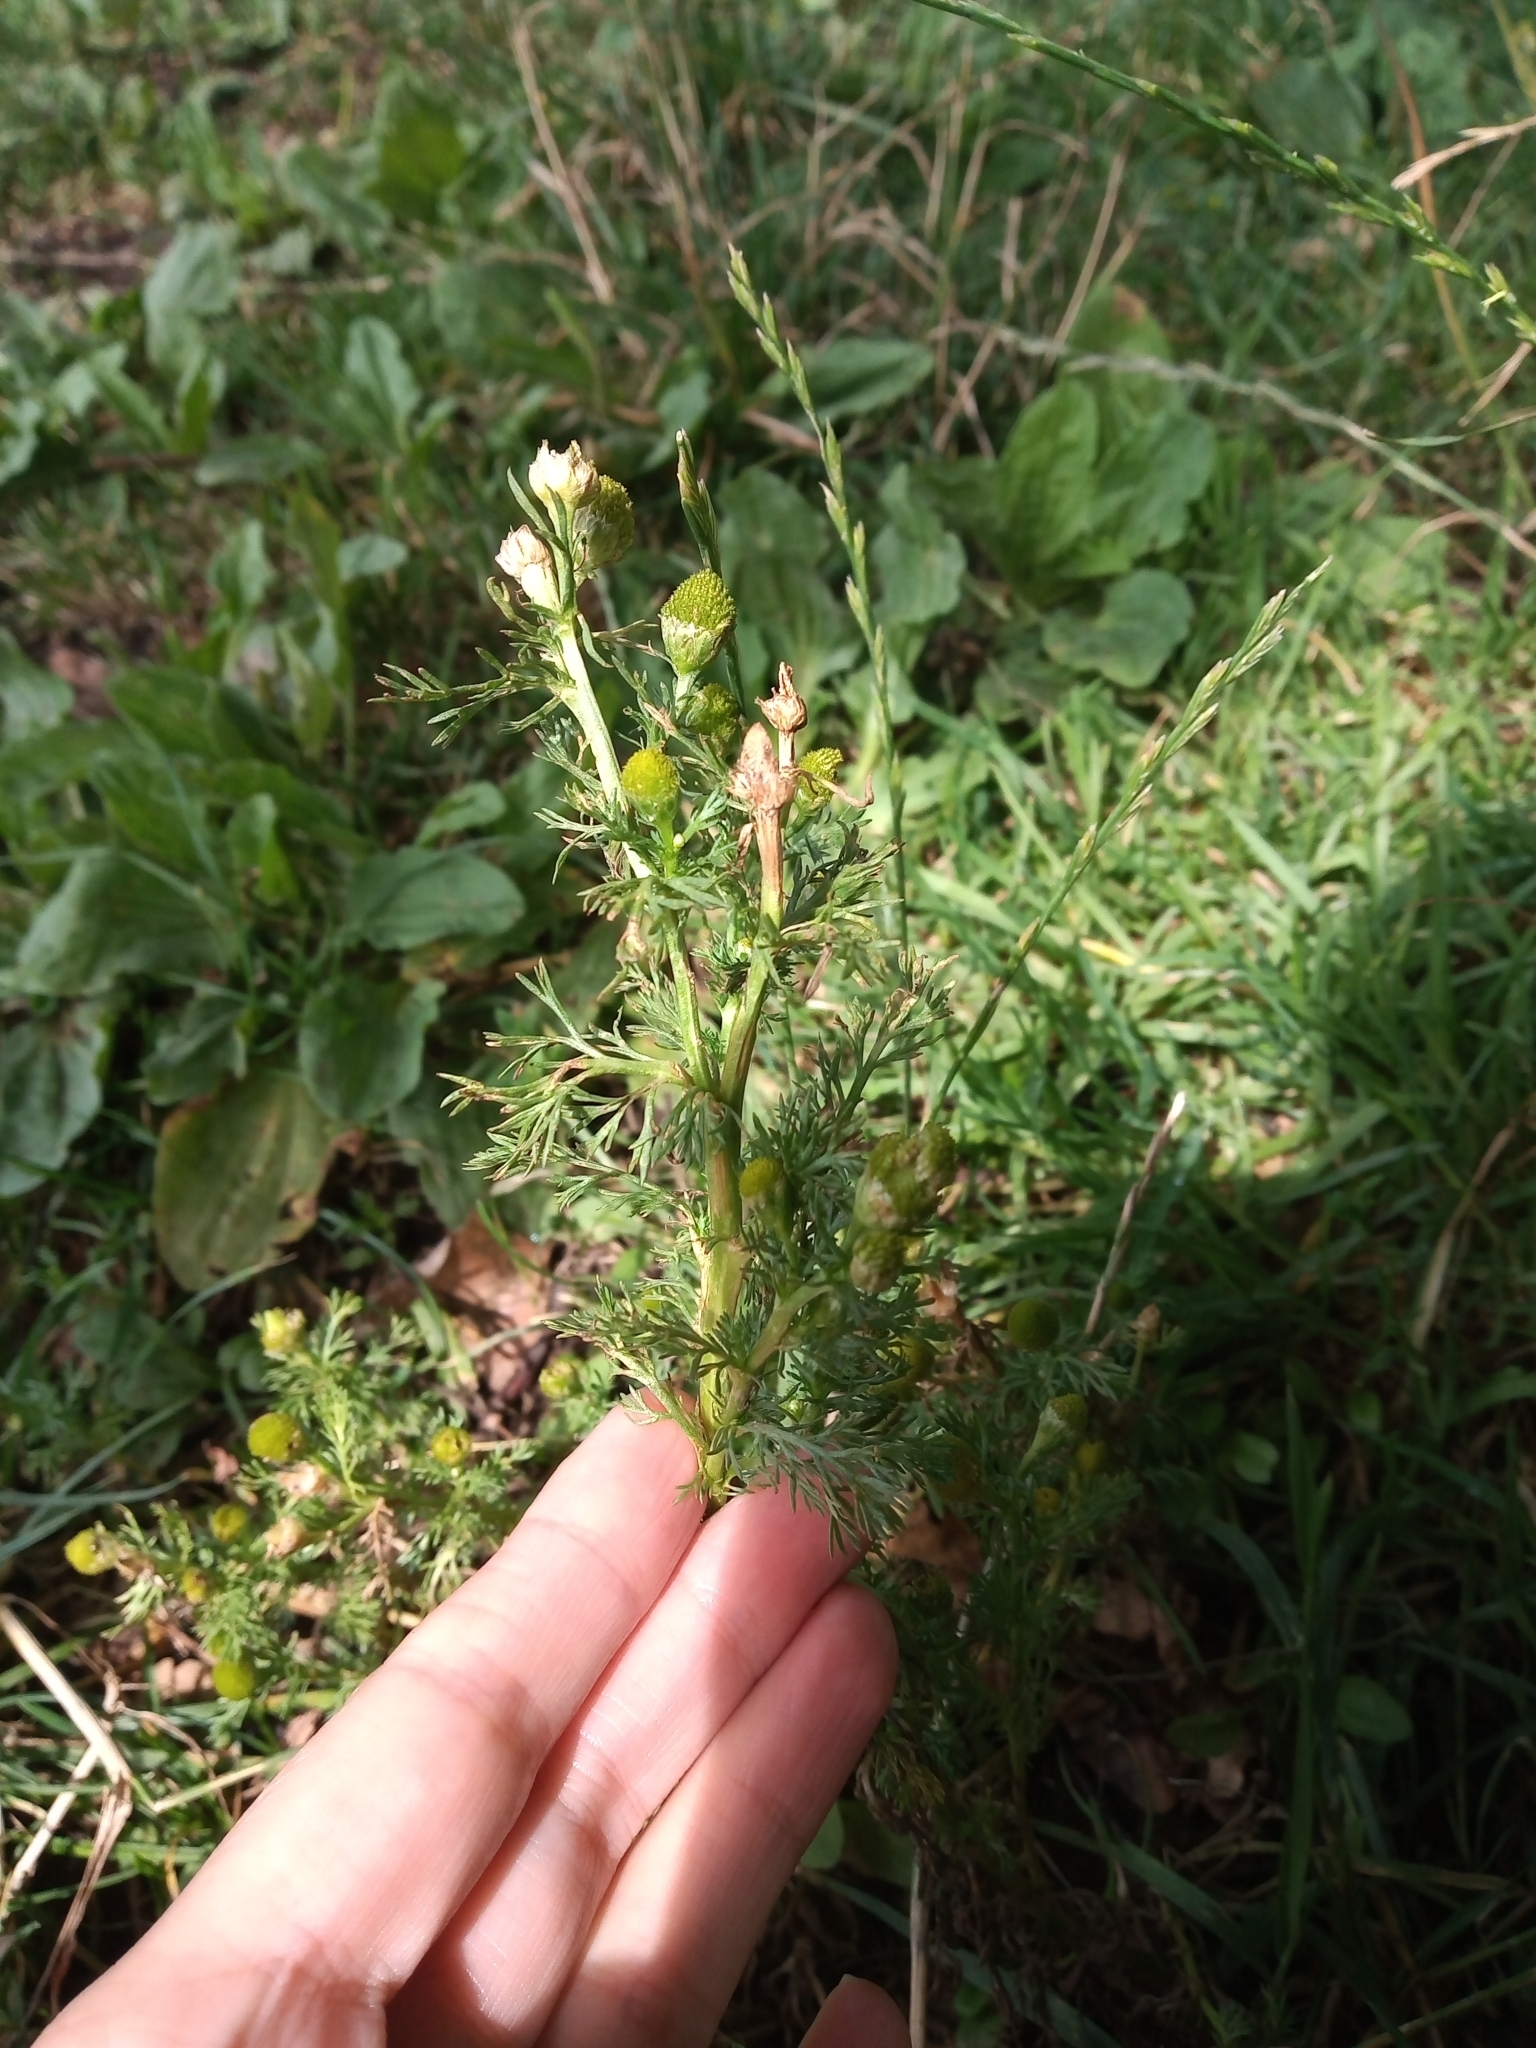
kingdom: Plantae
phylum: Tracheophyta
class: Magnoliopsida
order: Asterales
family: Asteraceae
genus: Matricaria
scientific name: Matricaria discoidea
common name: Disc mayweed
